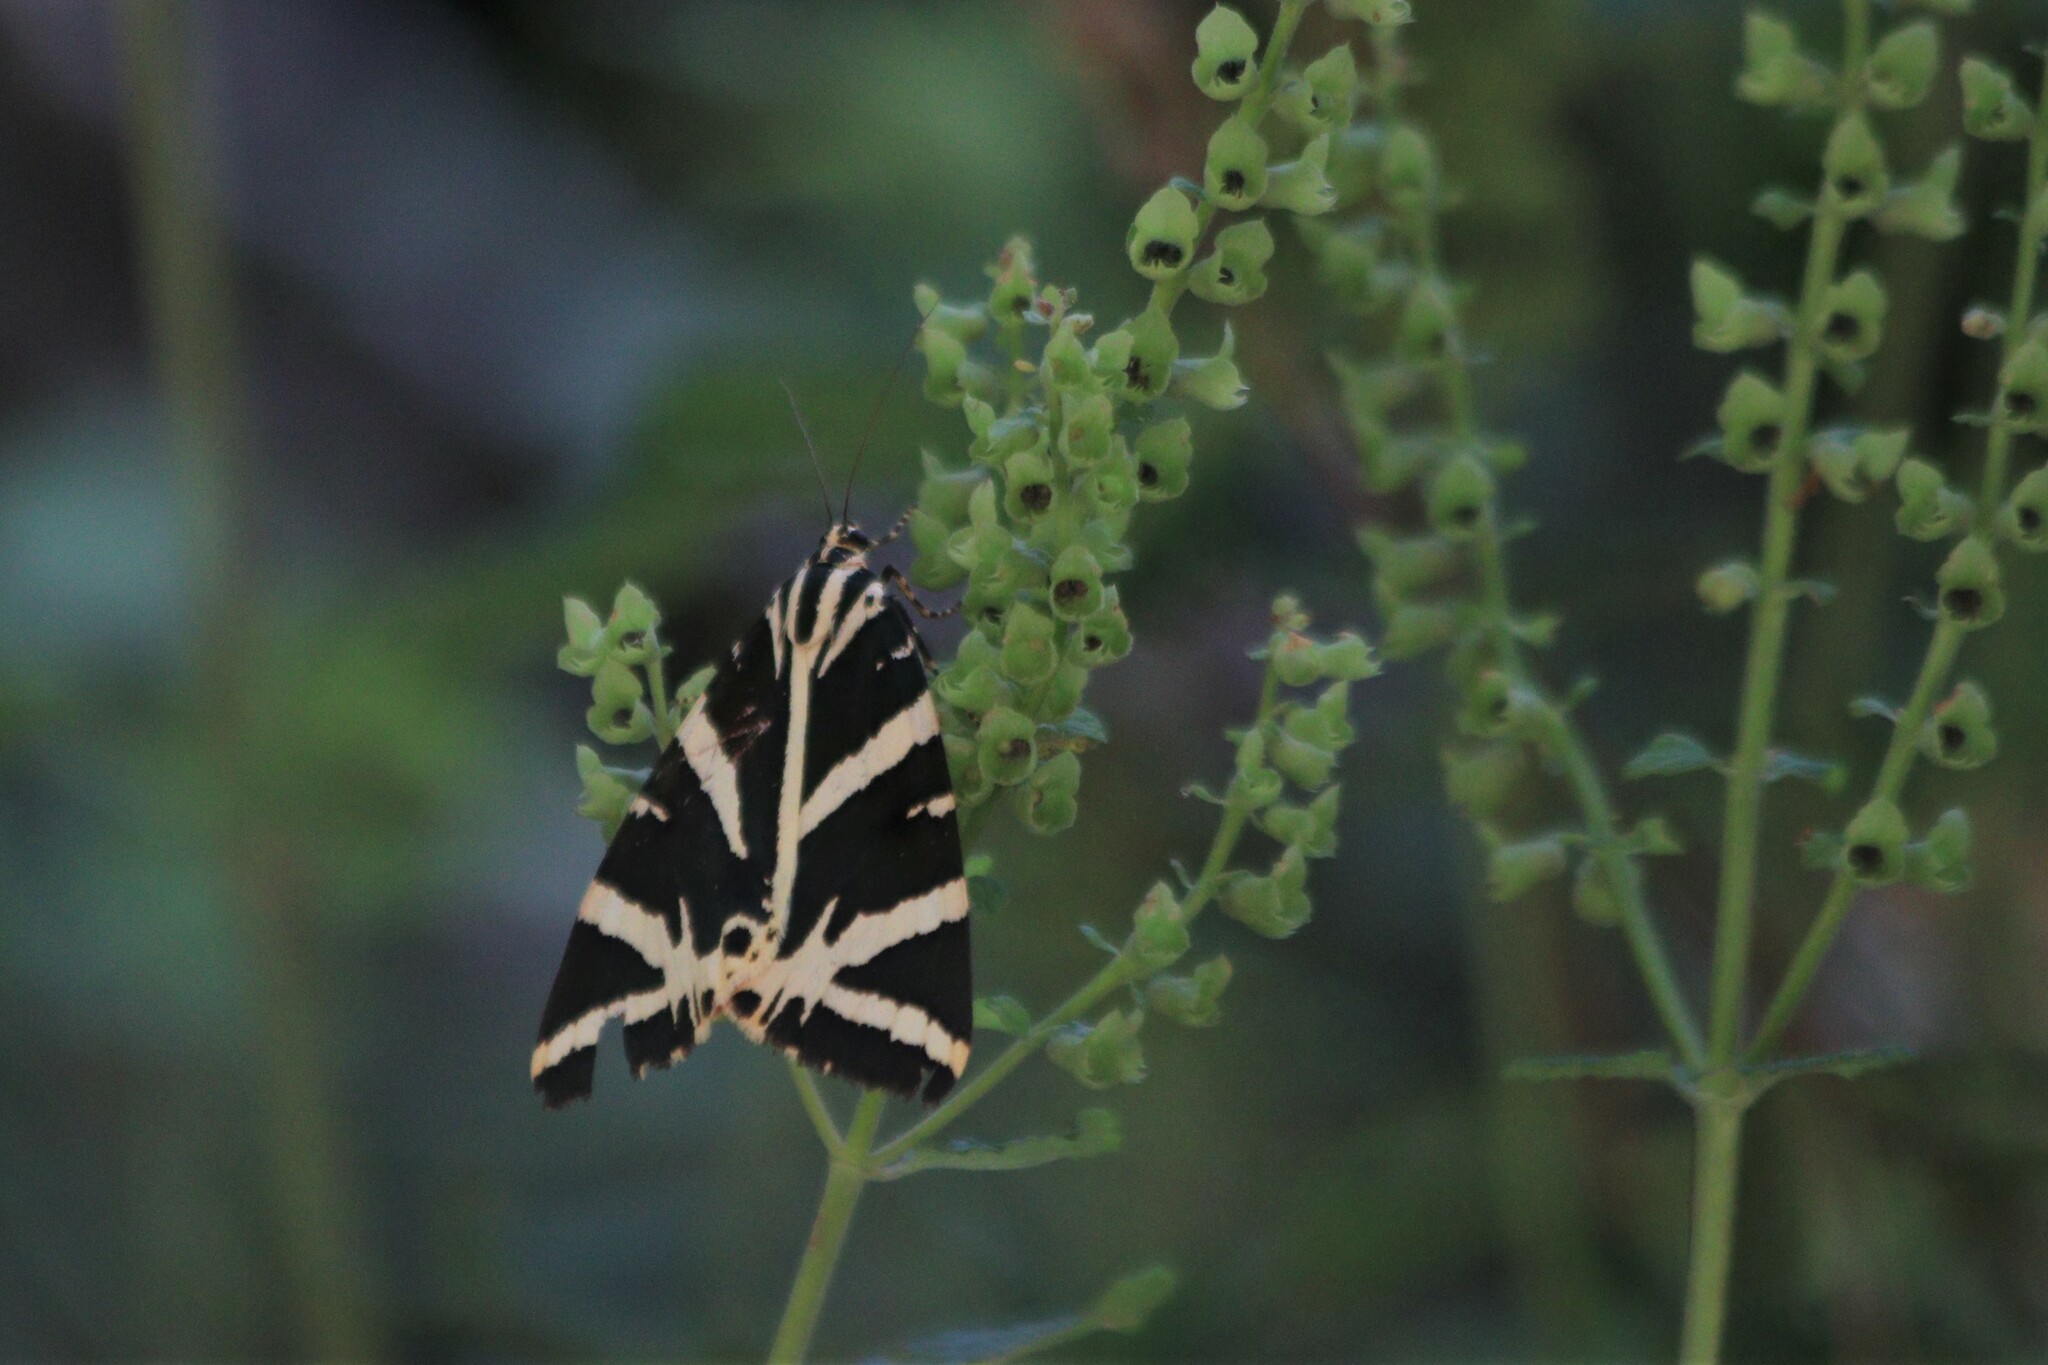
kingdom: Animalia
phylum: Arthropoda
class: Insecta
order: Lepidoptera
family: Erebidae
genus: Euplagia
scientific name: Euplagia quadripunctaria
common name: Jersey tiger
